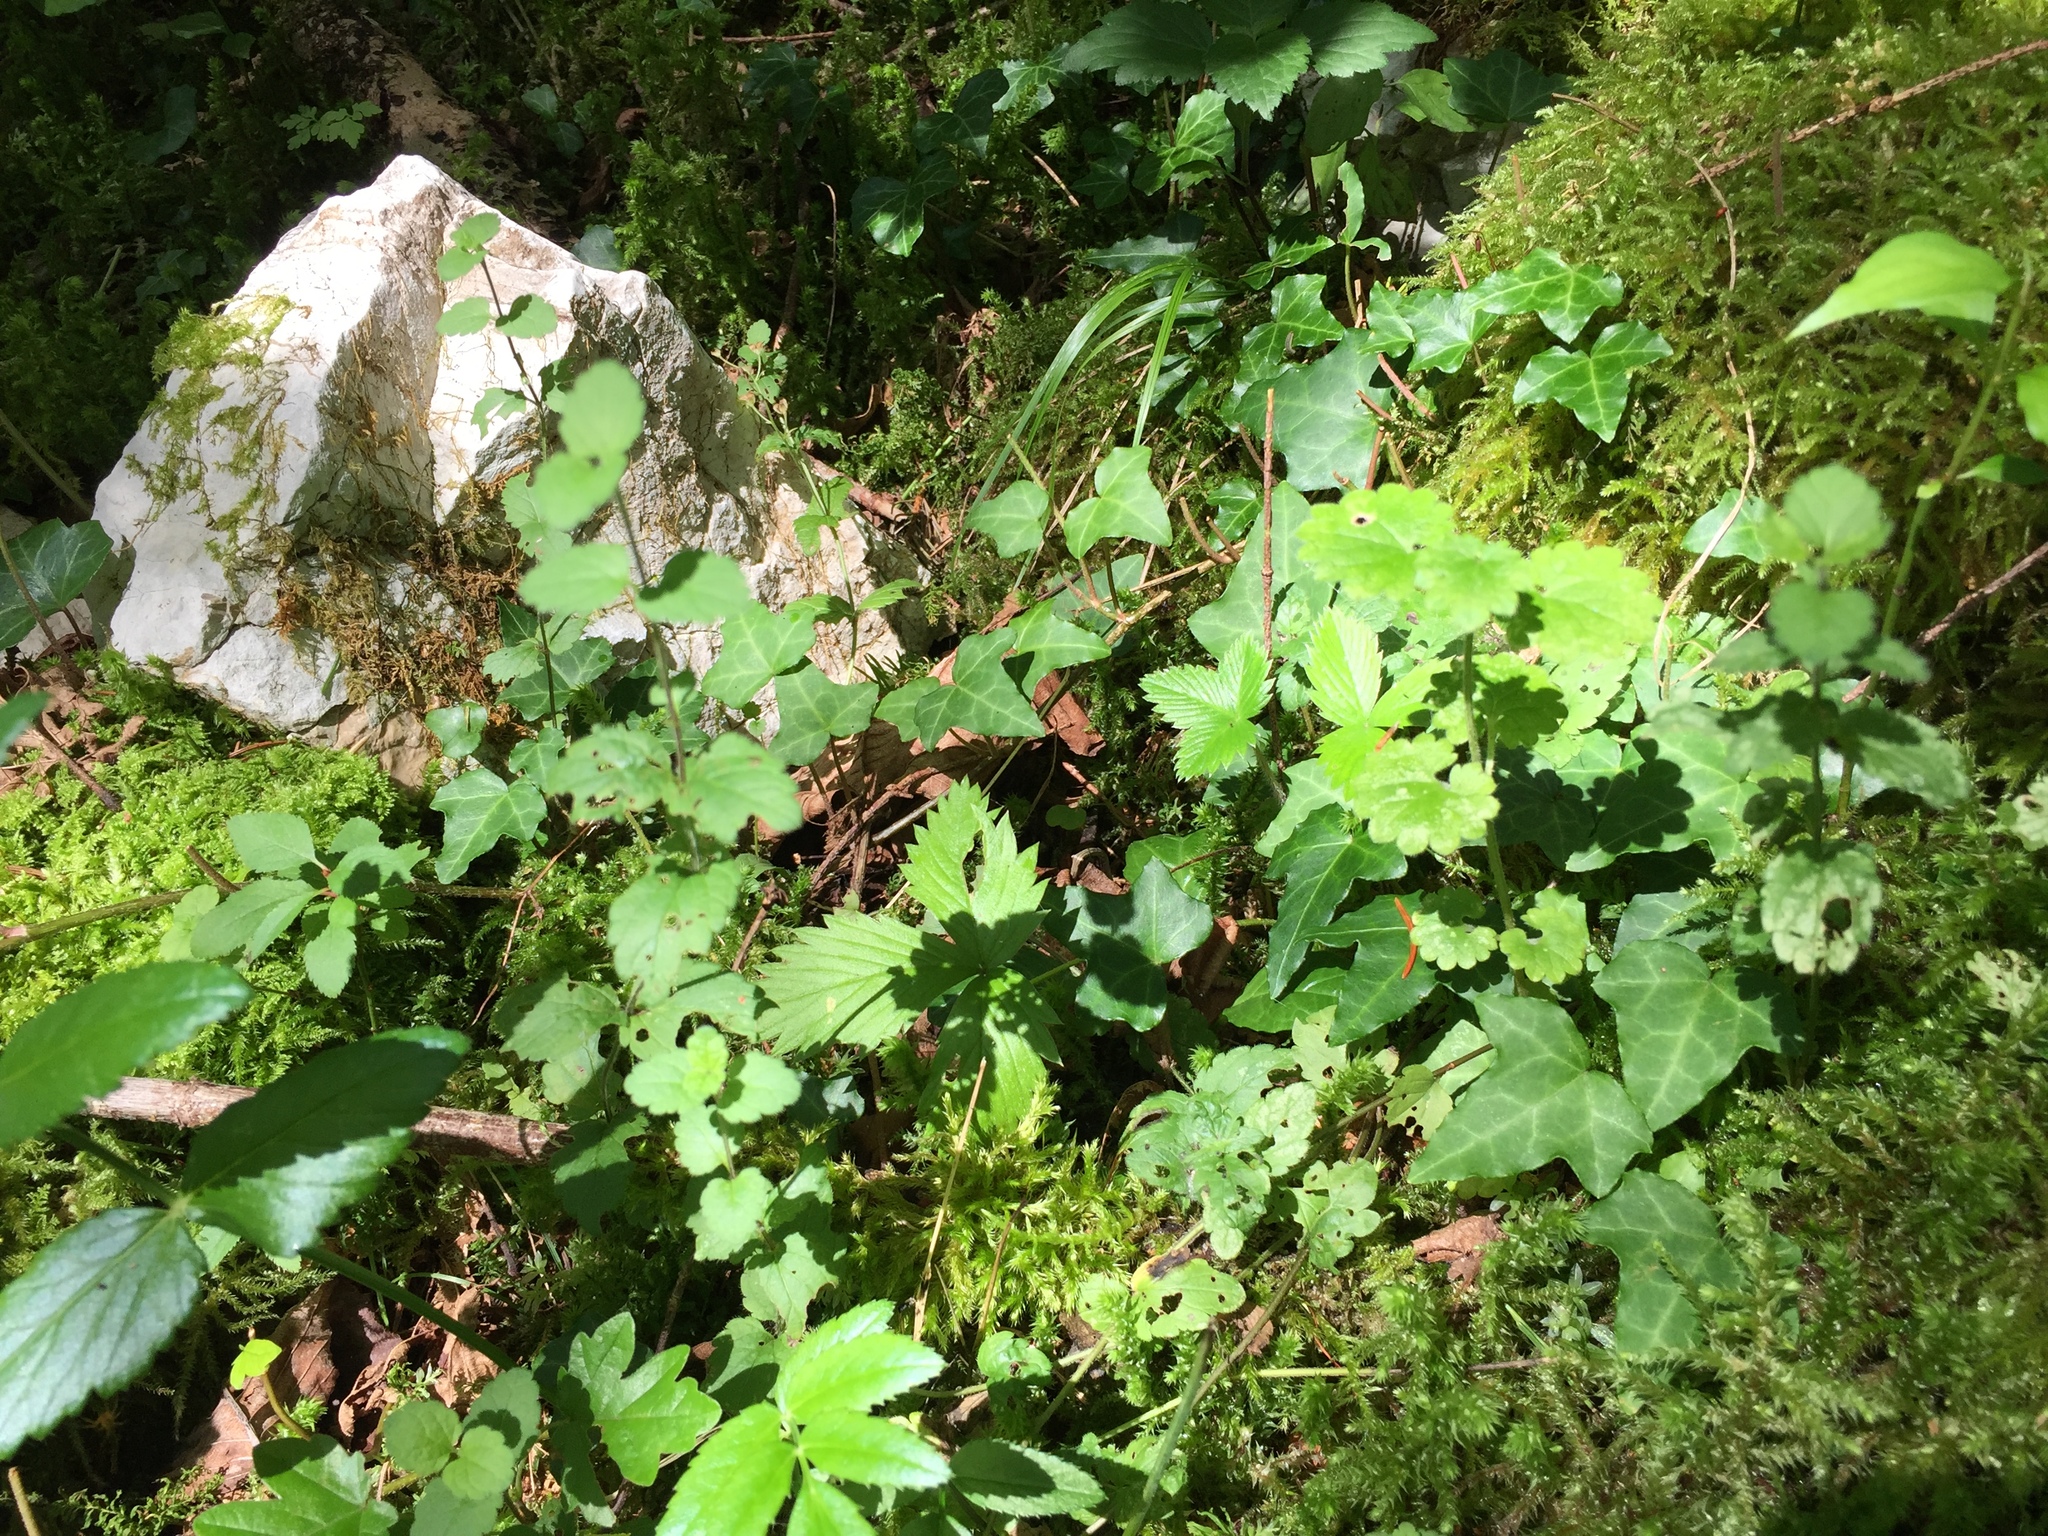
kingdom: Plantae
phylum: Tracheophyta
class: Magnoliopsida
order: Lamiales
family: Plantaginaceae
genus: Veronica
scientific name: Veronica montana
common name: Wood speedwell
